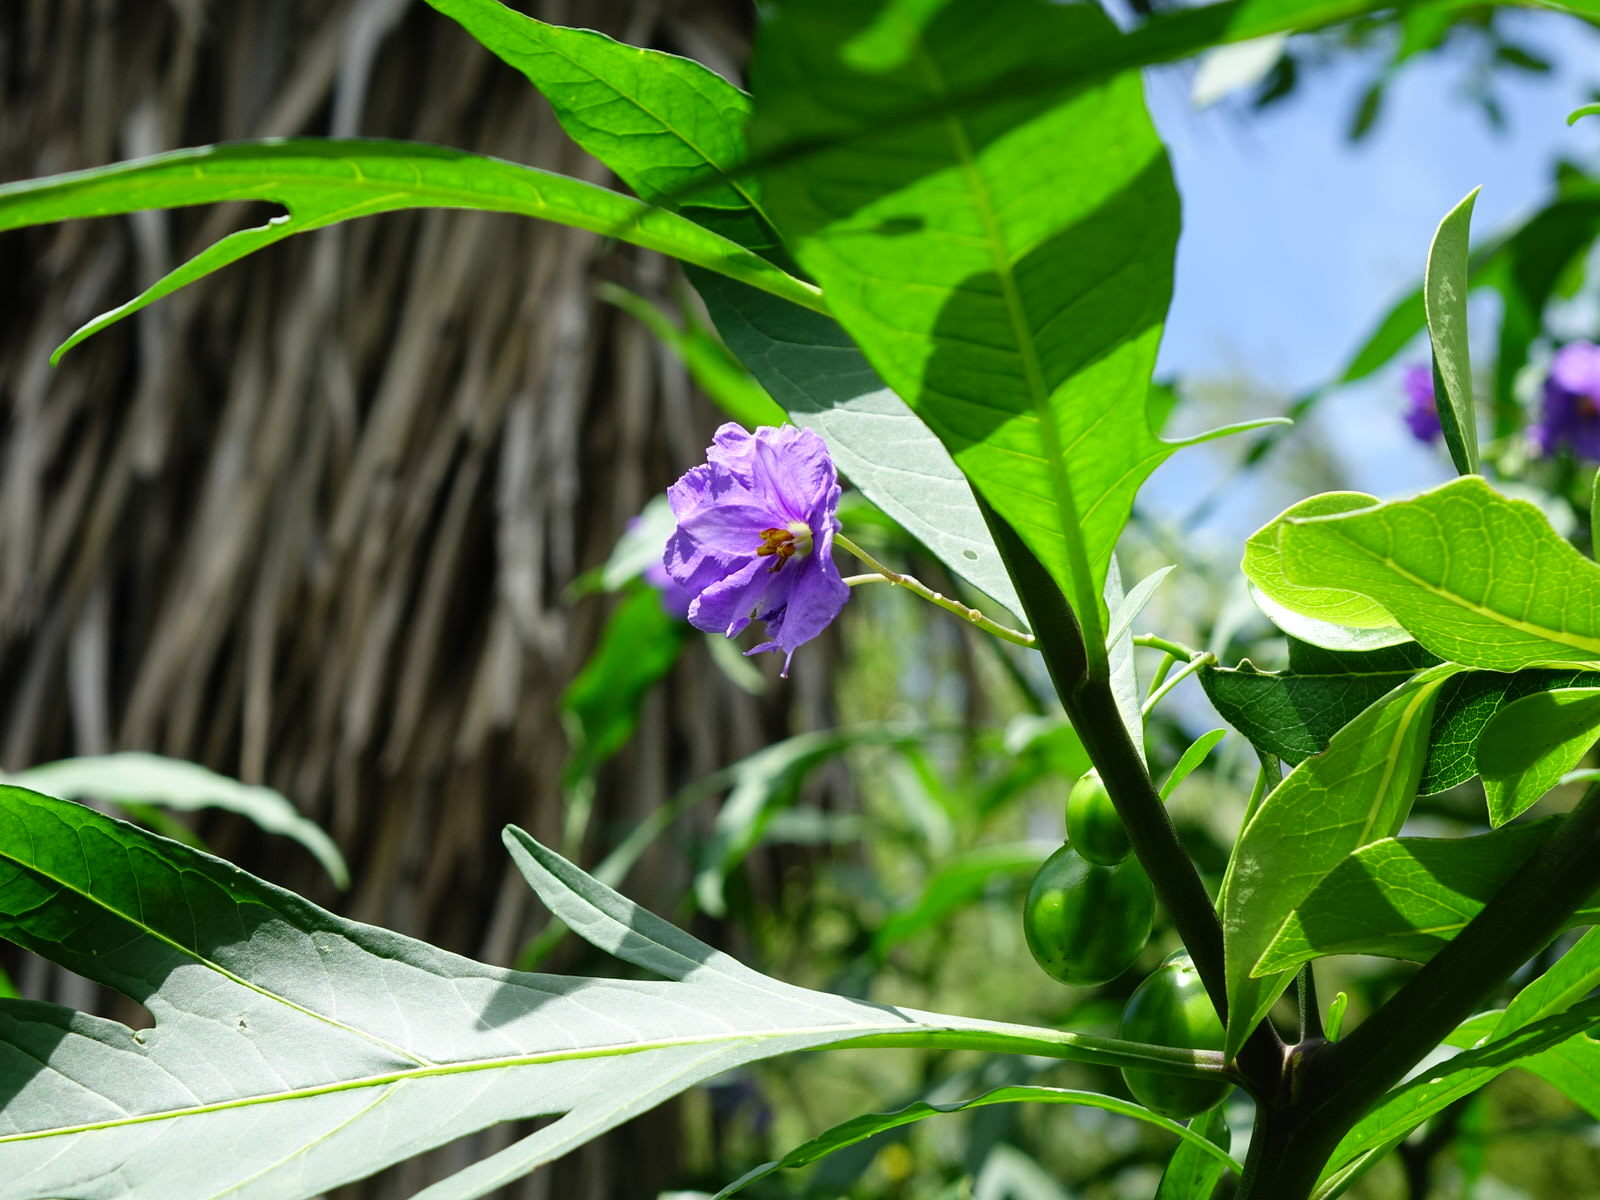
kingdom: Plantae
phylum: Tracheophyta
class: Magnoliopsida
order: Solanales
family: Solanaceae
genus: Solanum
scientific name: Solanum laciniatum
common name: Kangaroo-apple
